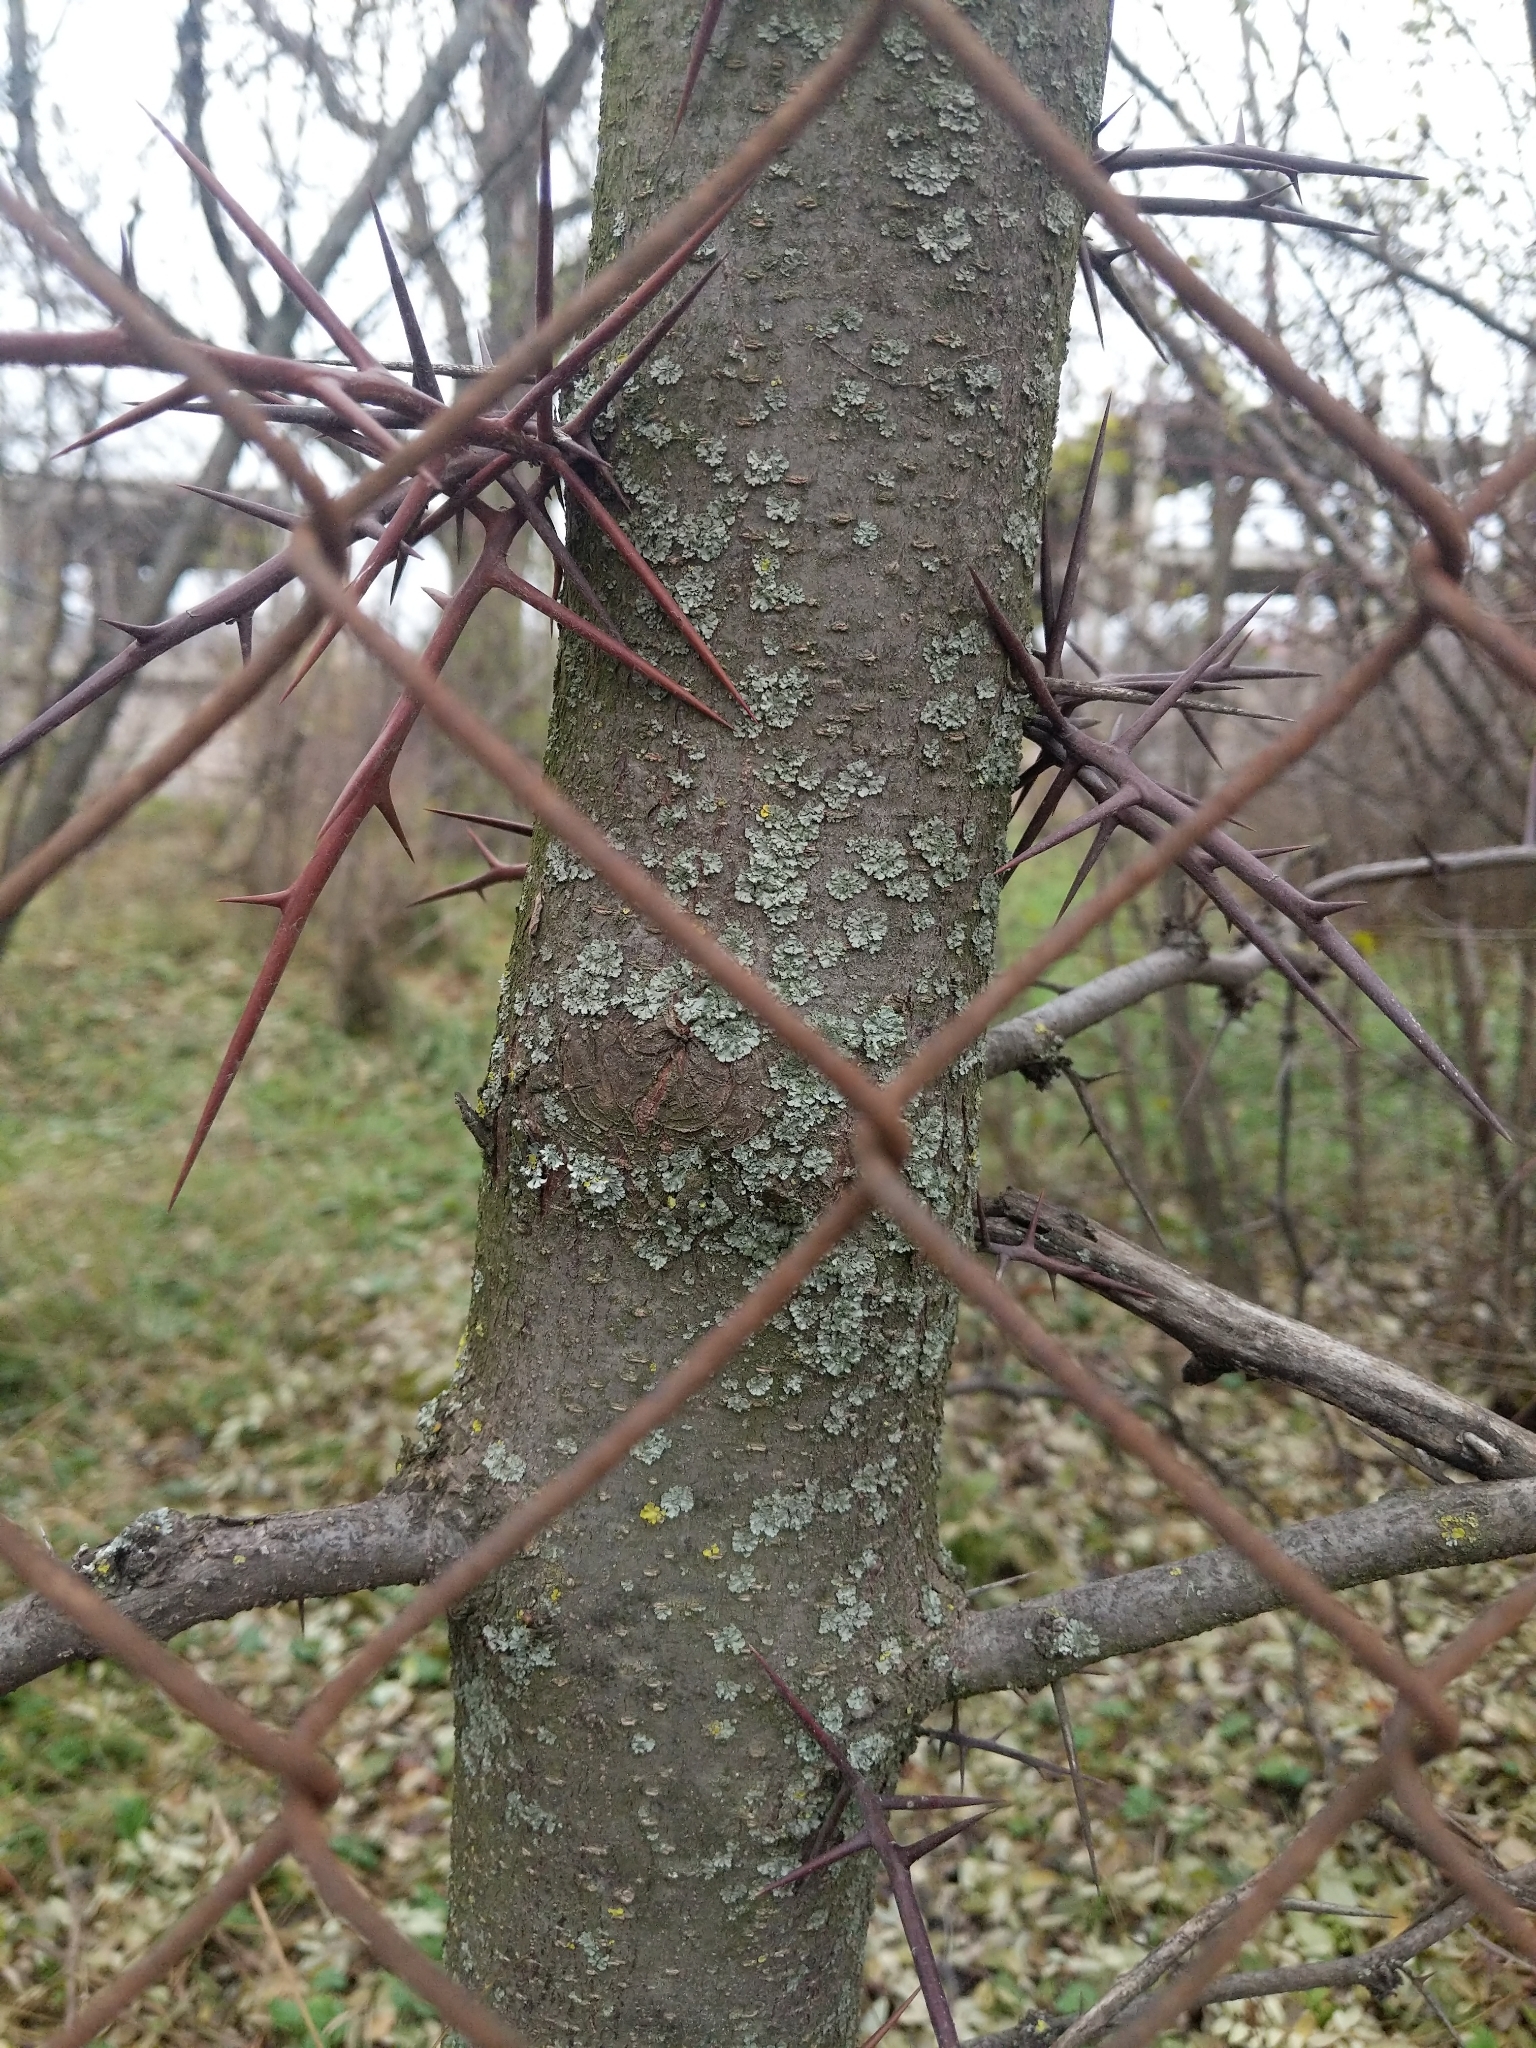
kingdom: Plantae
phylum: Tracheophyta
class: Magnoliopsida
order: Fabales
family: Fabaceae
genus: Gleditsia
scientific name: Gleditsia triacanthos
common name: Common honeylocust
